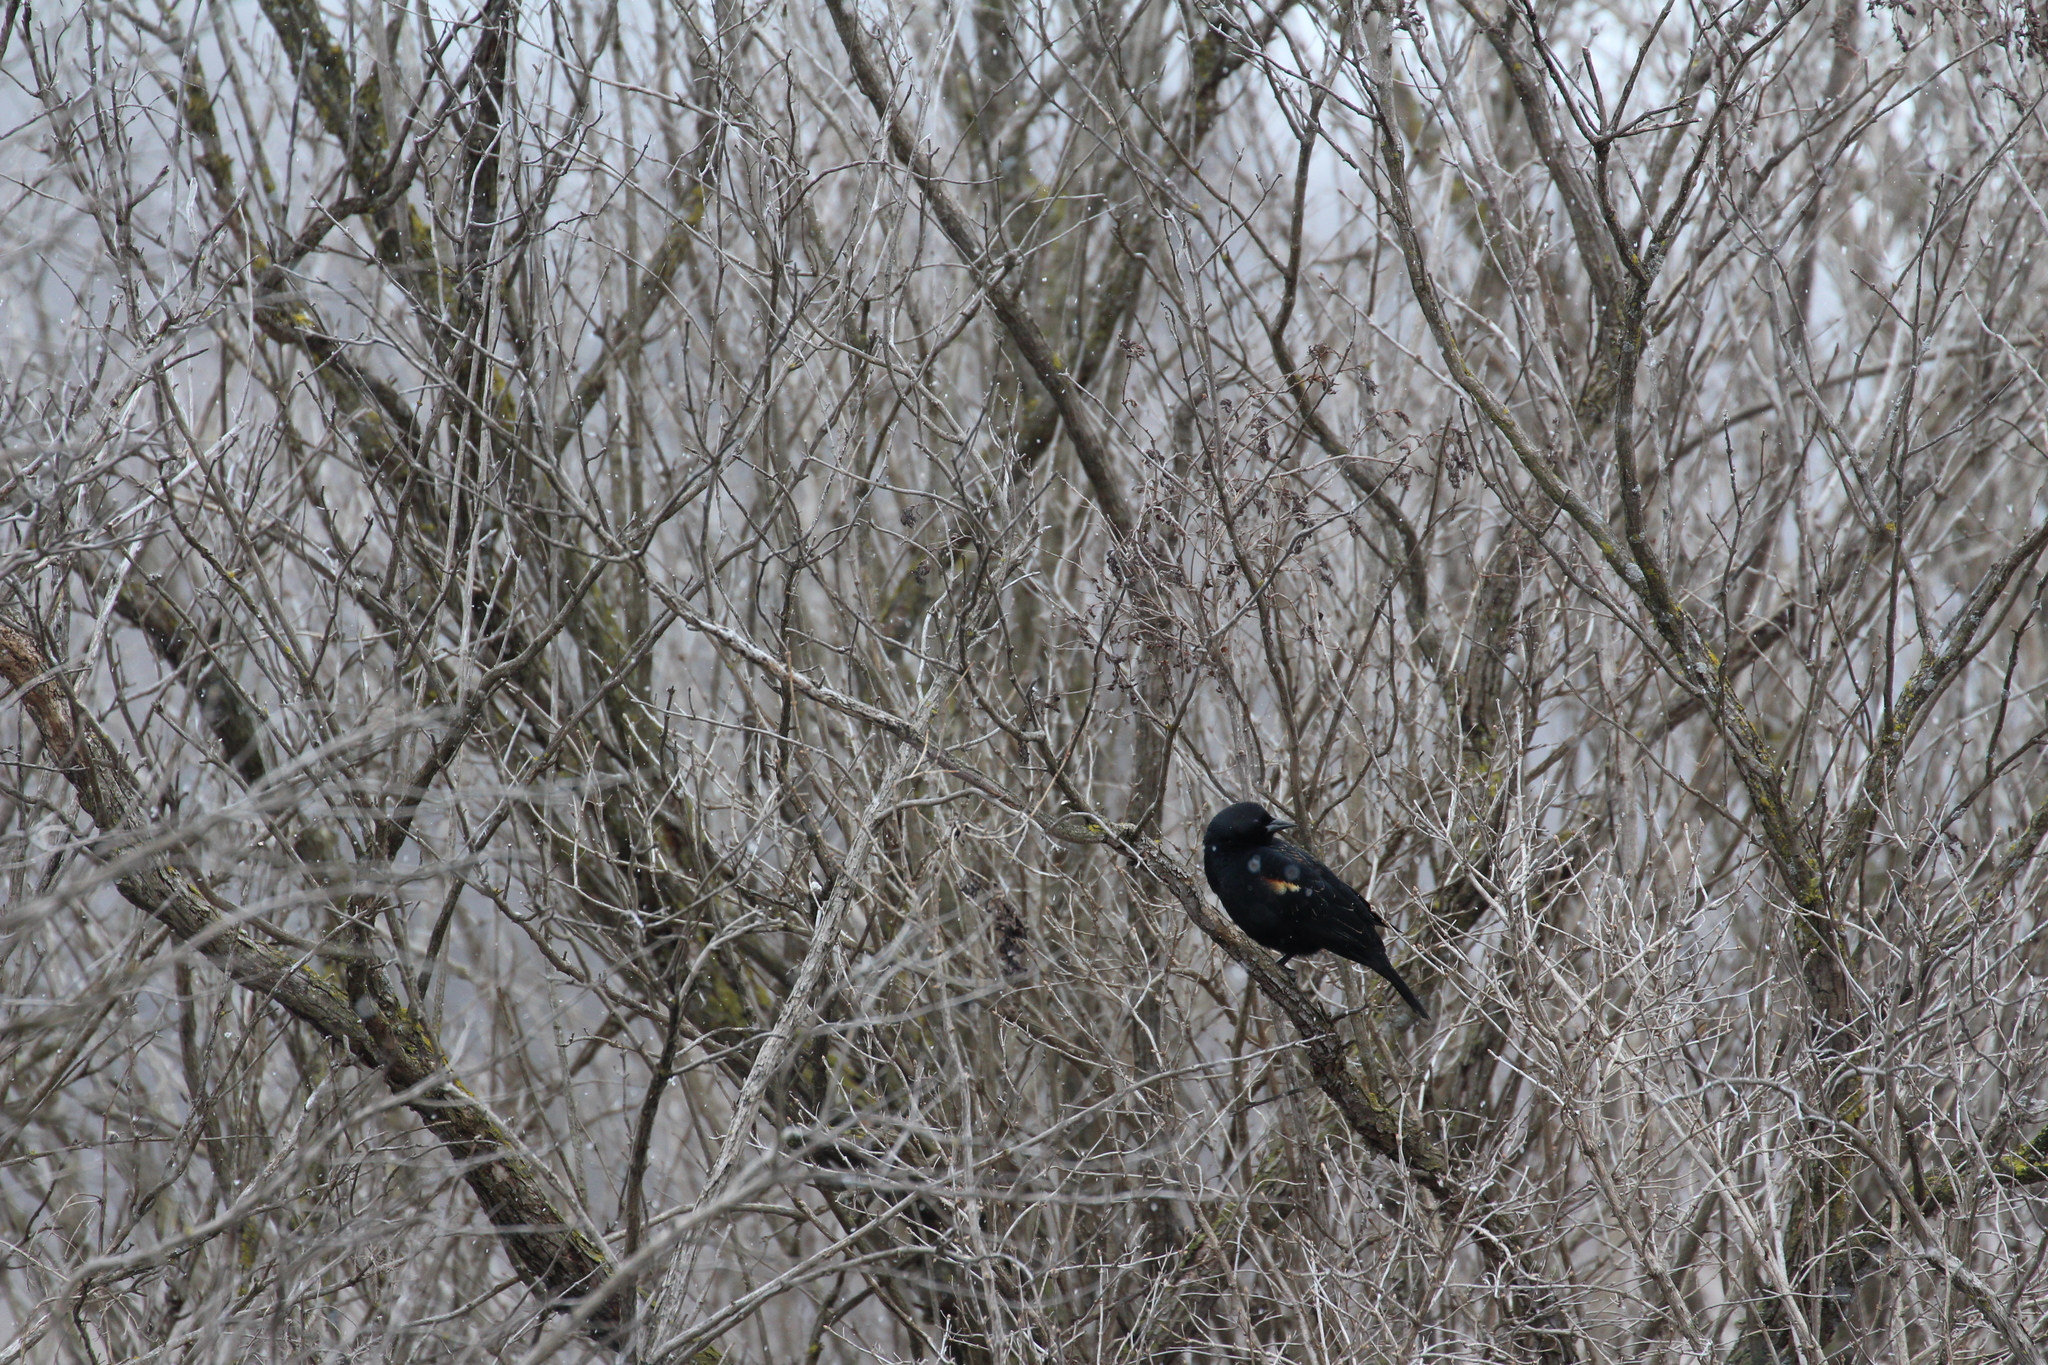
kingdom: Animalia
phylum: Chordata
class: Aves
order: Passeriformes
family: Icteridae
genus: Agelaius
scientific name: Agelaius phoeniceus
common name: Red-winged blackbird
